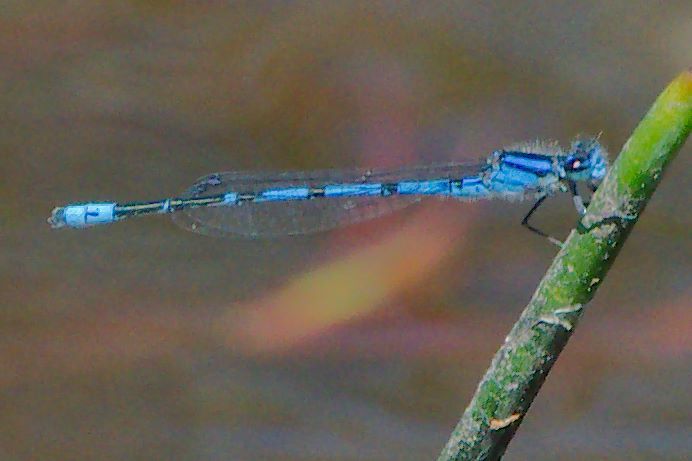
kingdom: Animalia
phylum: Arthropoda
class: Insecta
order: Odonata
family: Coenagrionidae
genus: Enallagma
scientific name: Enallagma davisi
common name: Sandhill bluet
